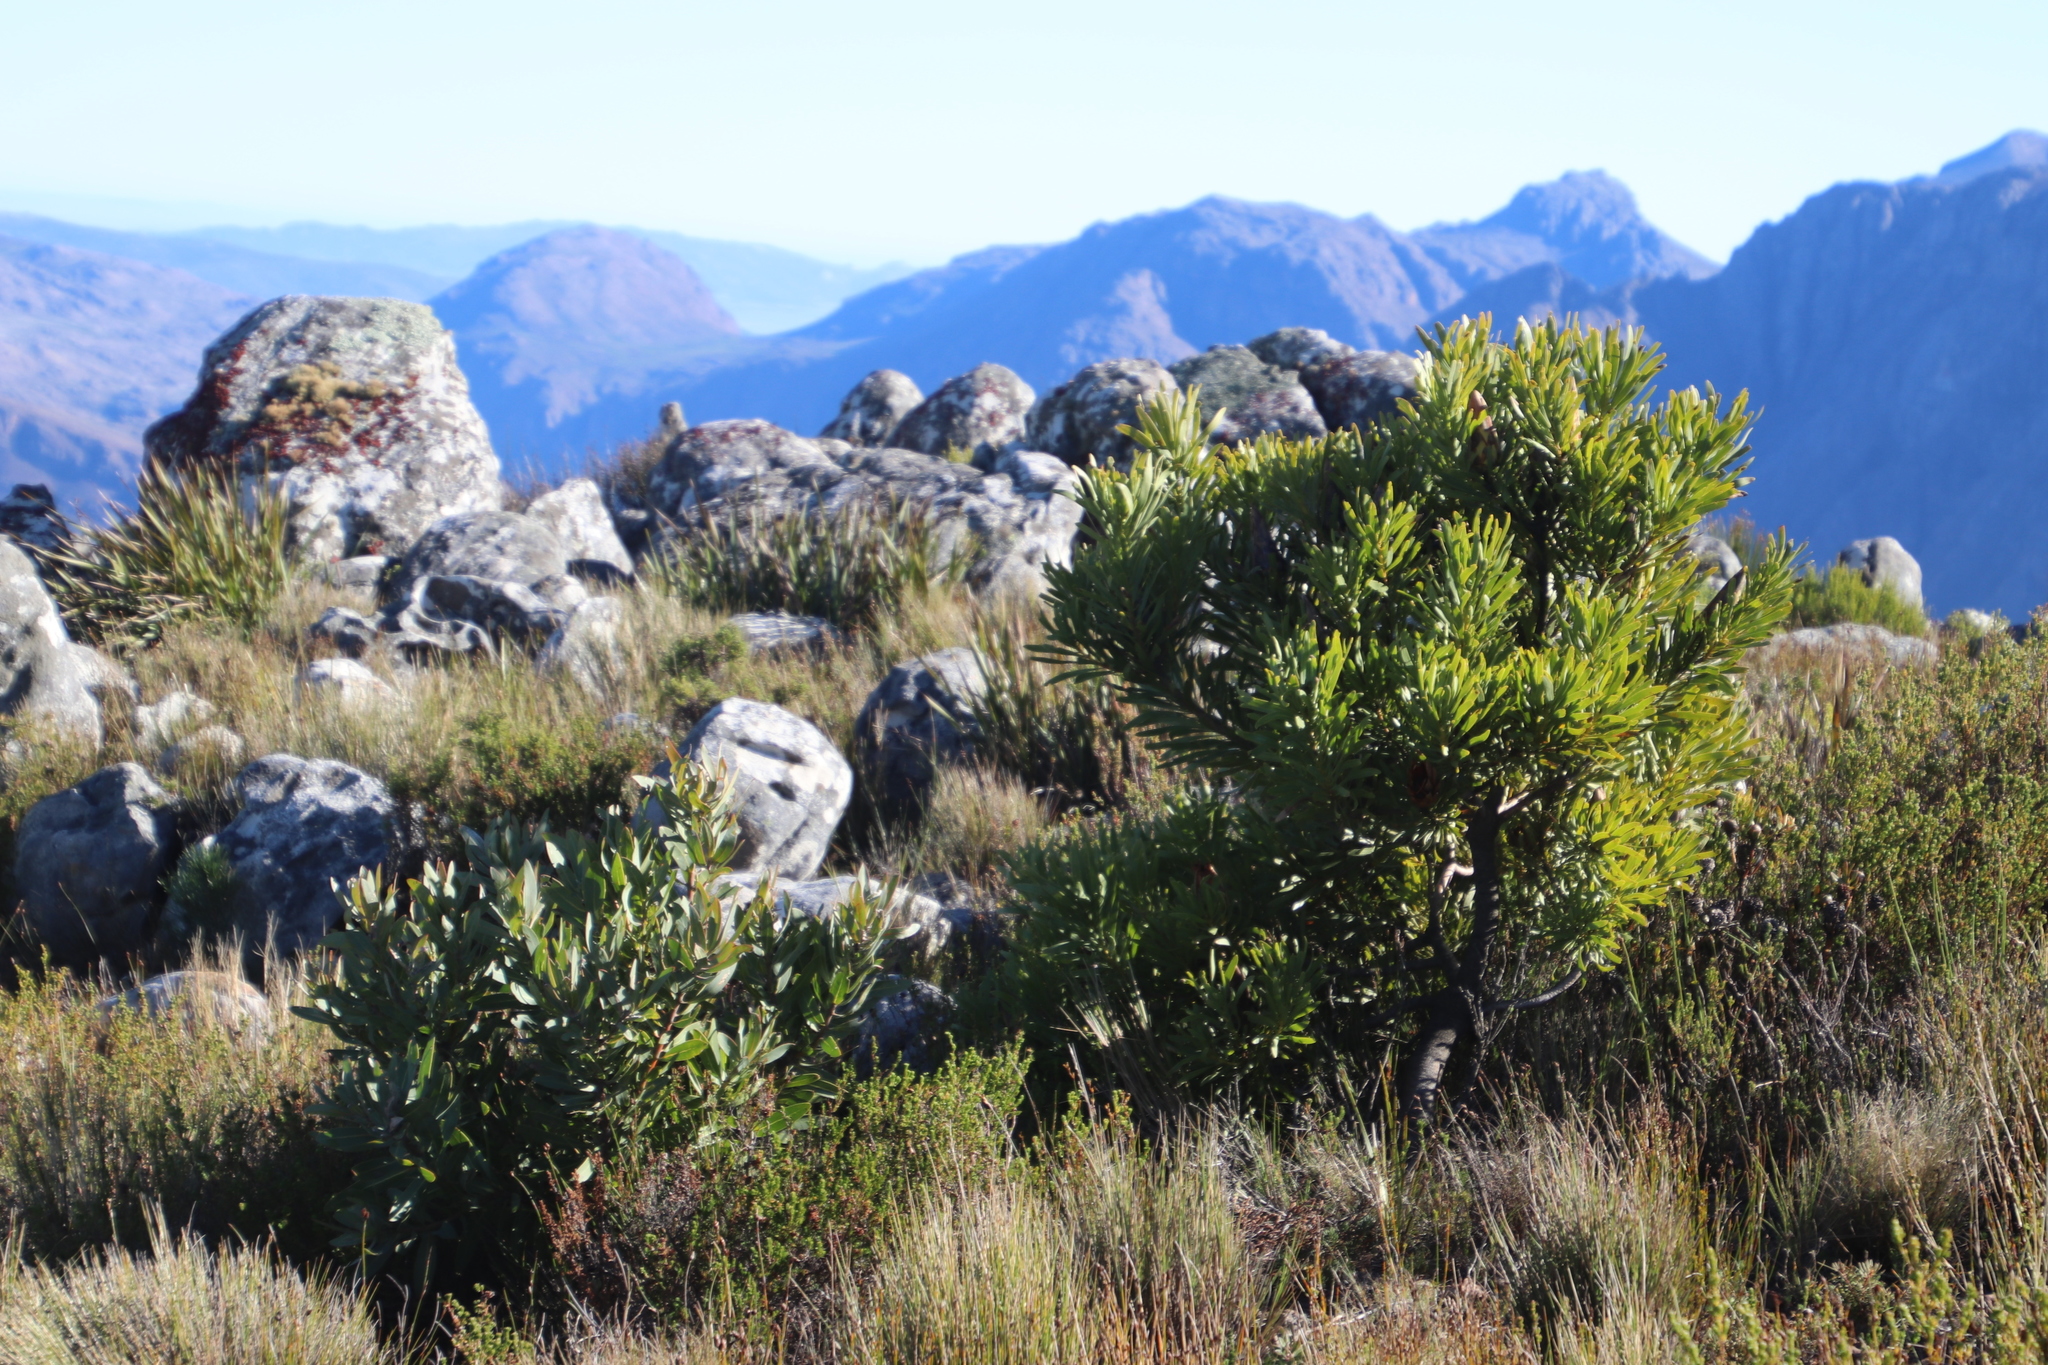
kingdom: Plantae
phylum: Tracheophyta
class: Magnoliopsida
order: Proteales
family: Proteaceae
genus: Protea
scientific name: Protea repens
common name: Sugarbush
